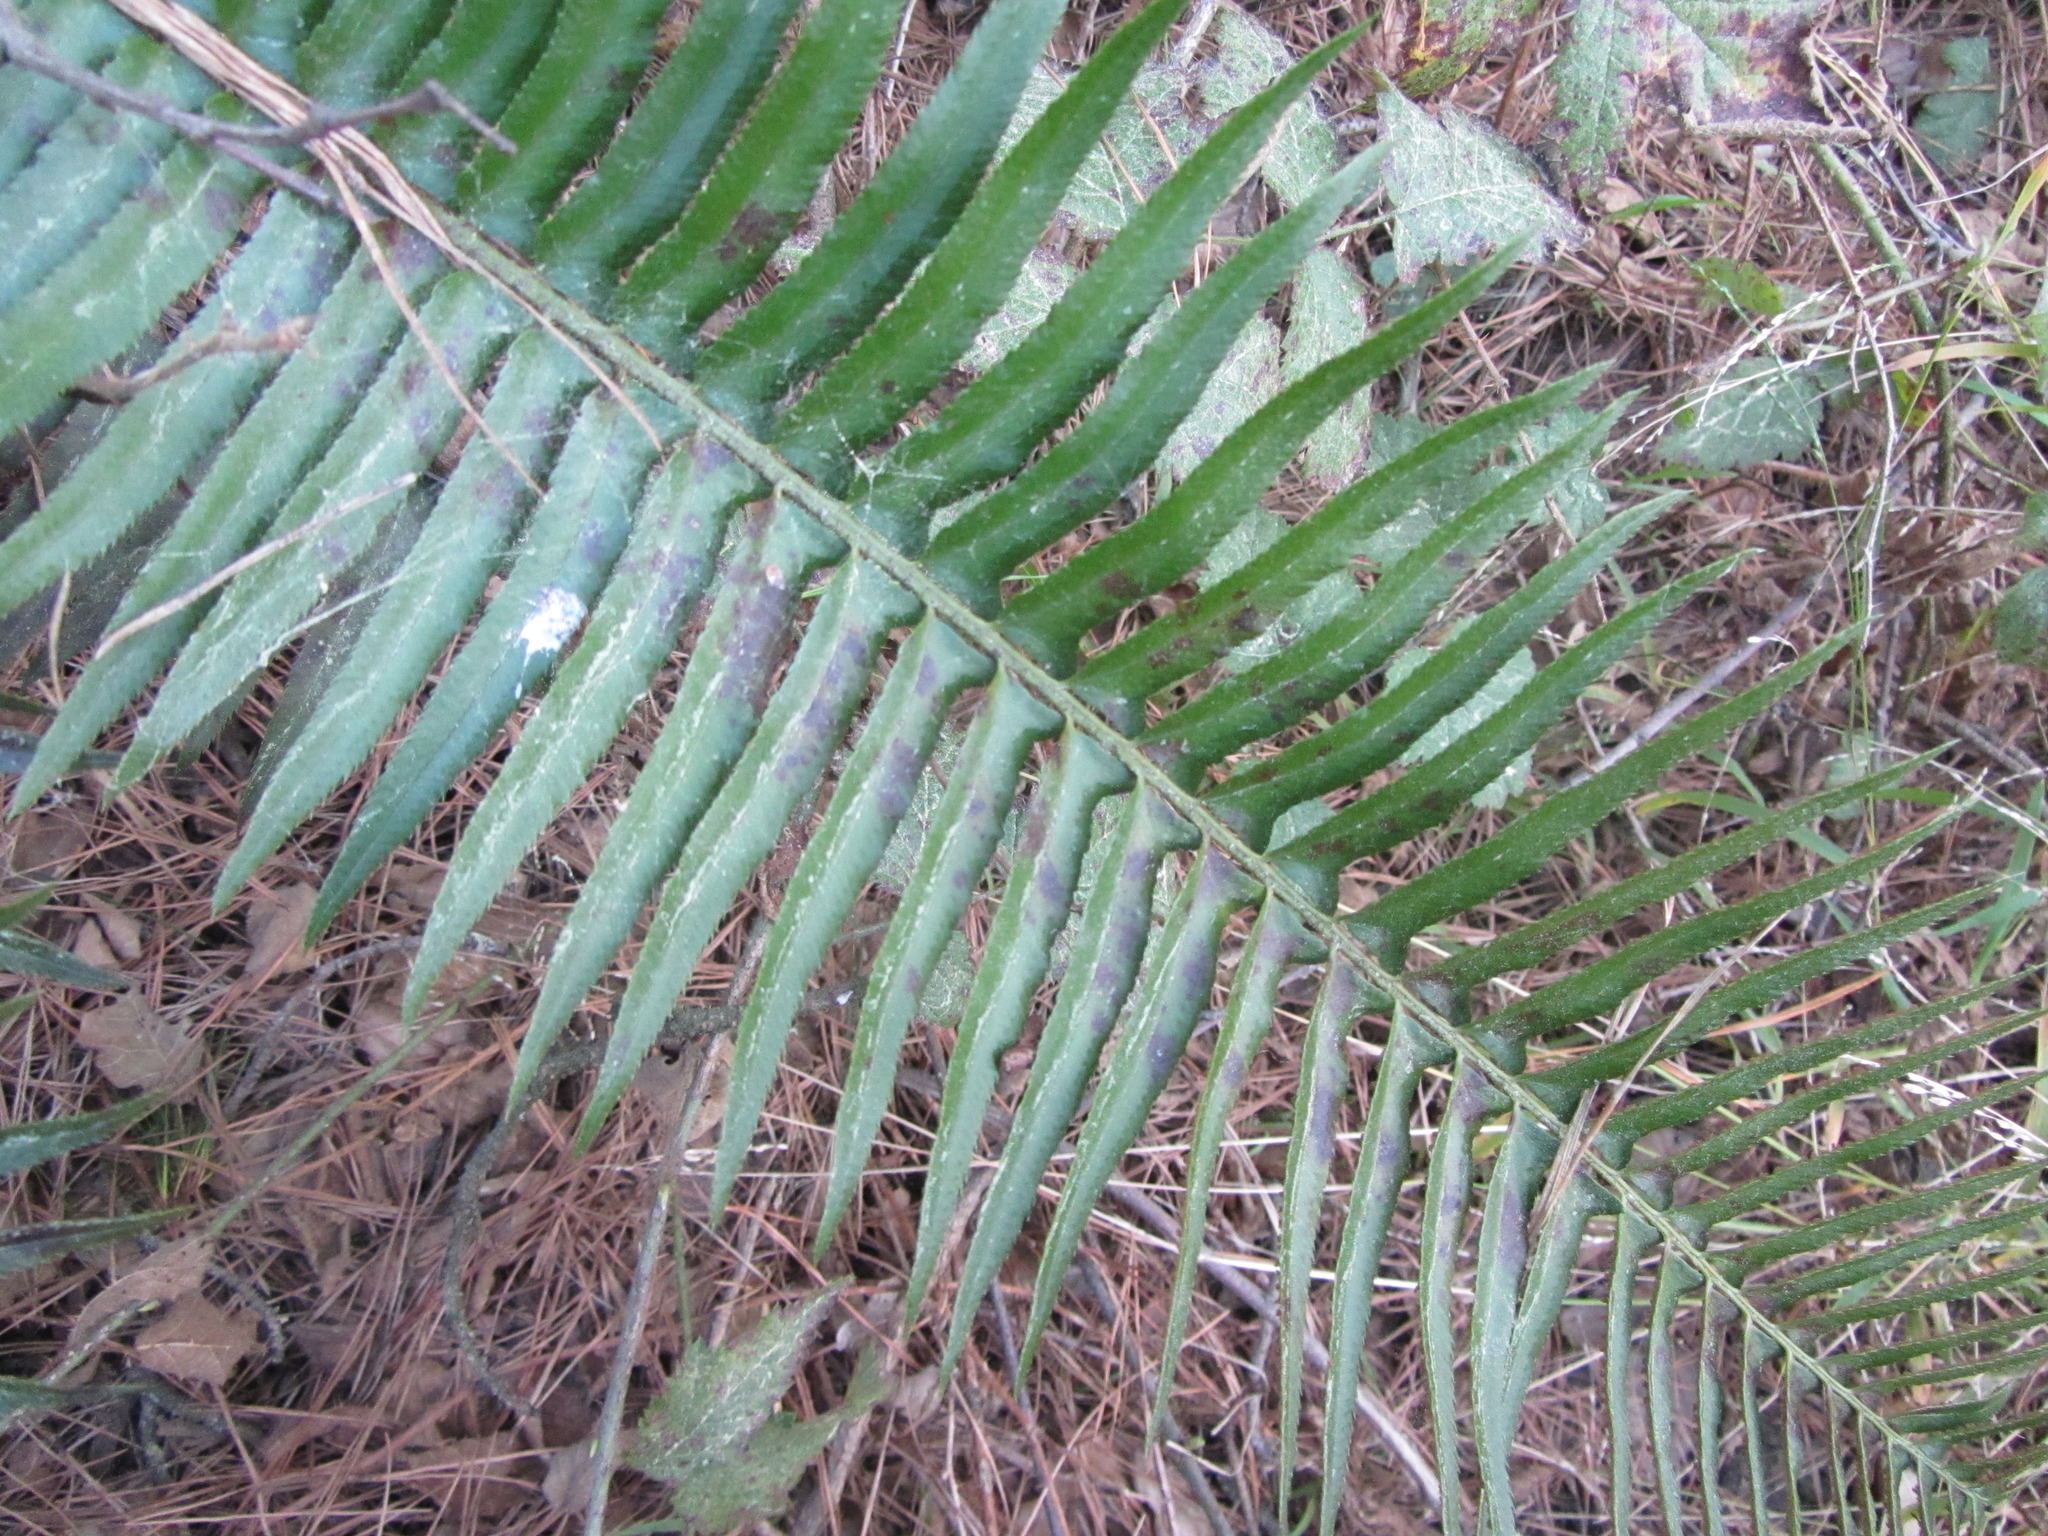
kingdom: Plantae
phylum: Tracheophyta
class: Polypodiopsida
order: Polypodiales
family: Dryopteridaceae
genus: Polystichum
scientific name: Polystichum munitum
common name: Western sword-fern
